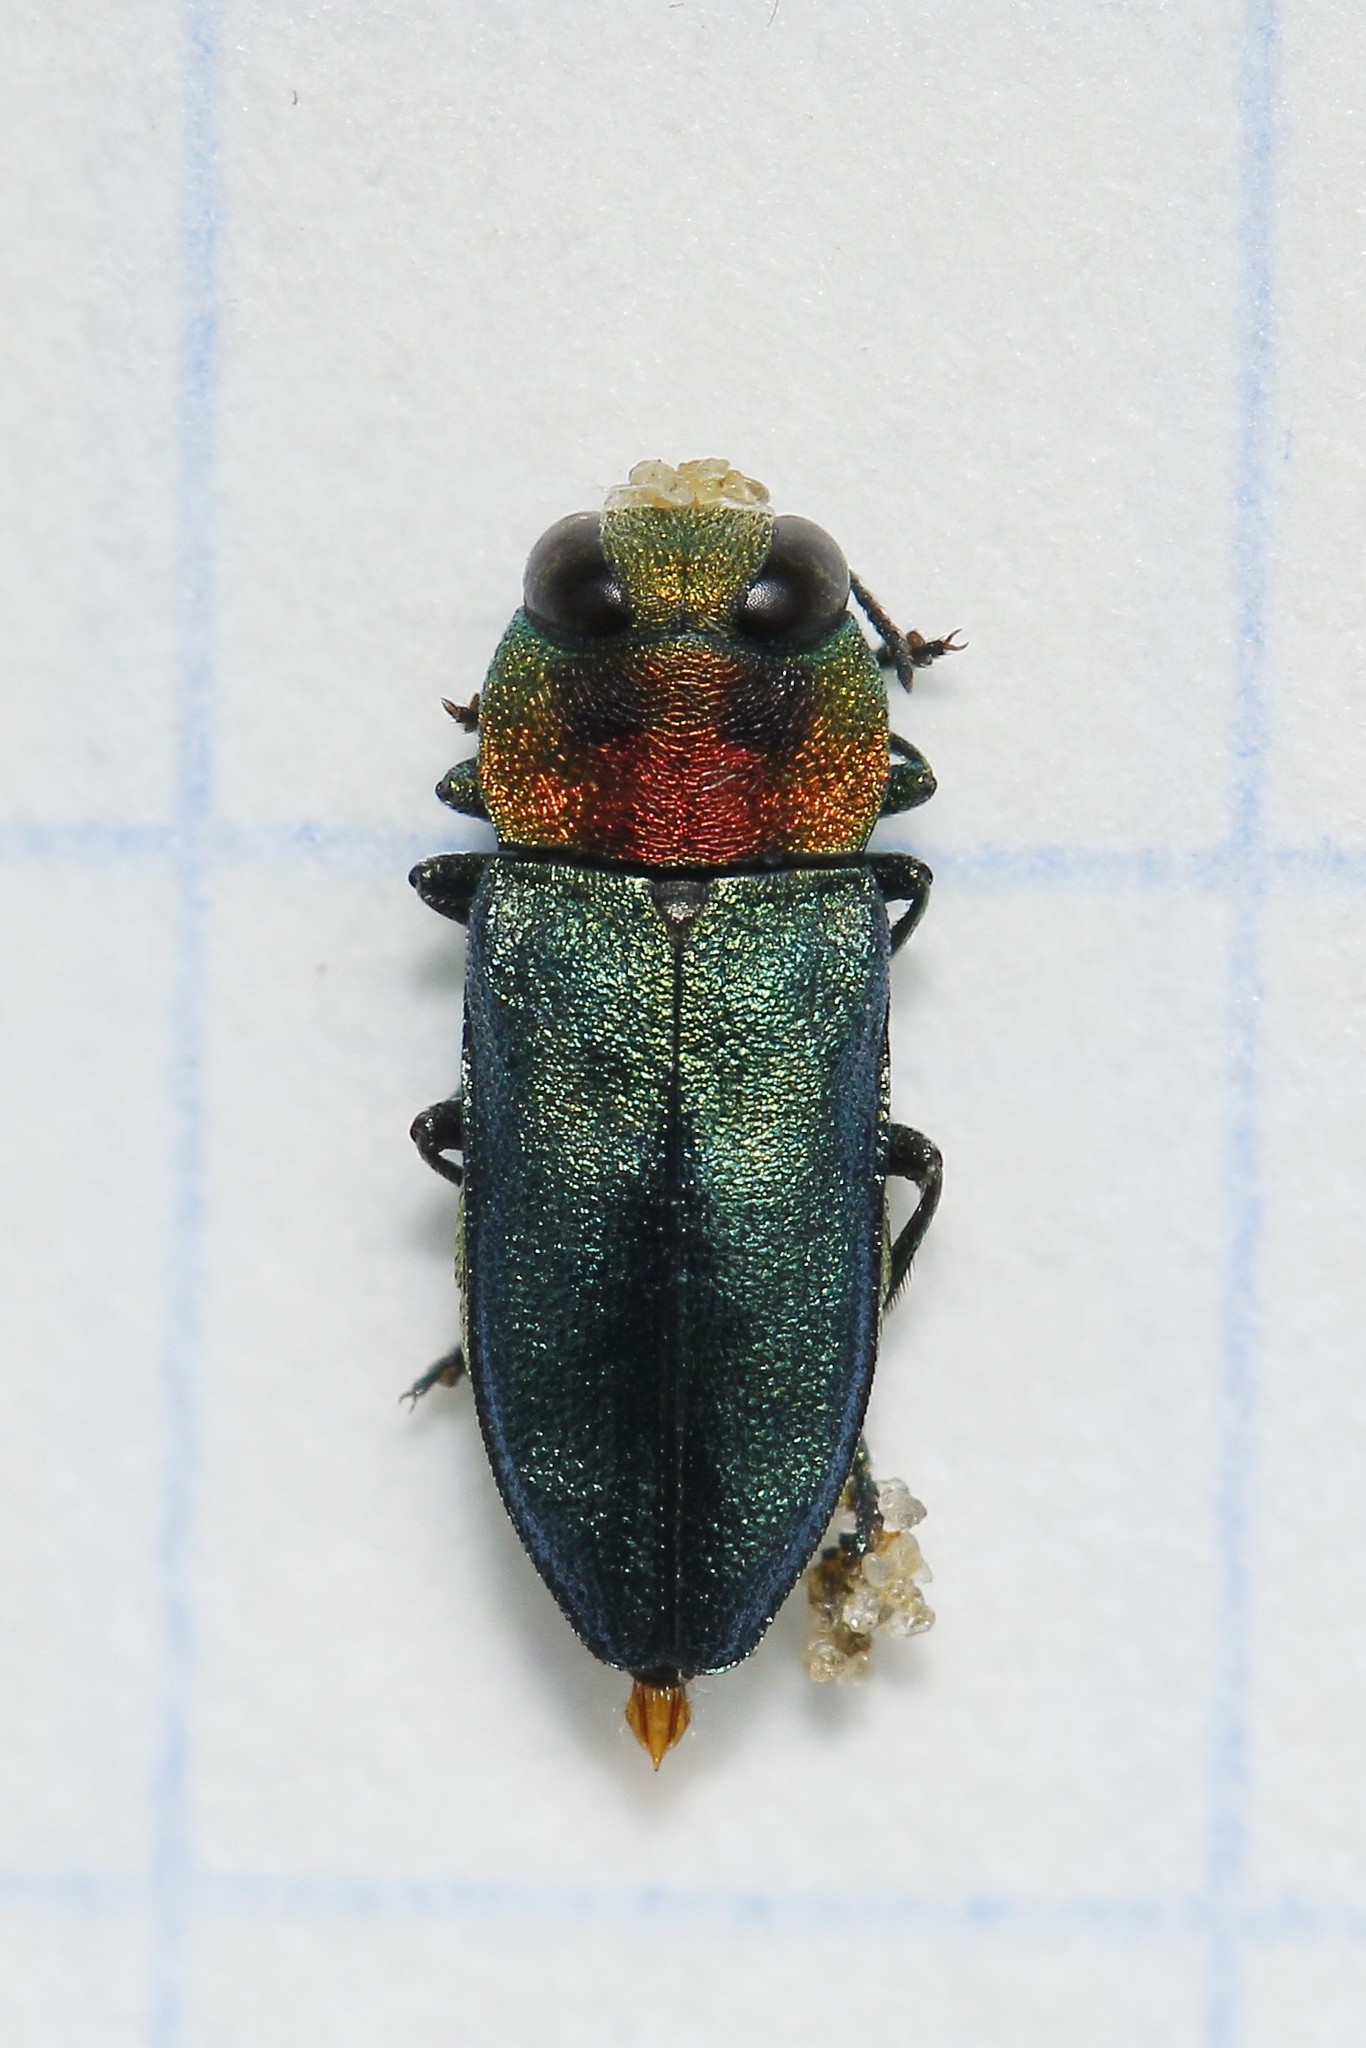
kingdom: Animalia
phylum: Arthropoda
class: Insecta
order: Coleoptera
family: Buprestidae
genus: Anthaxia
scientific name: Anthaxia nitidula
